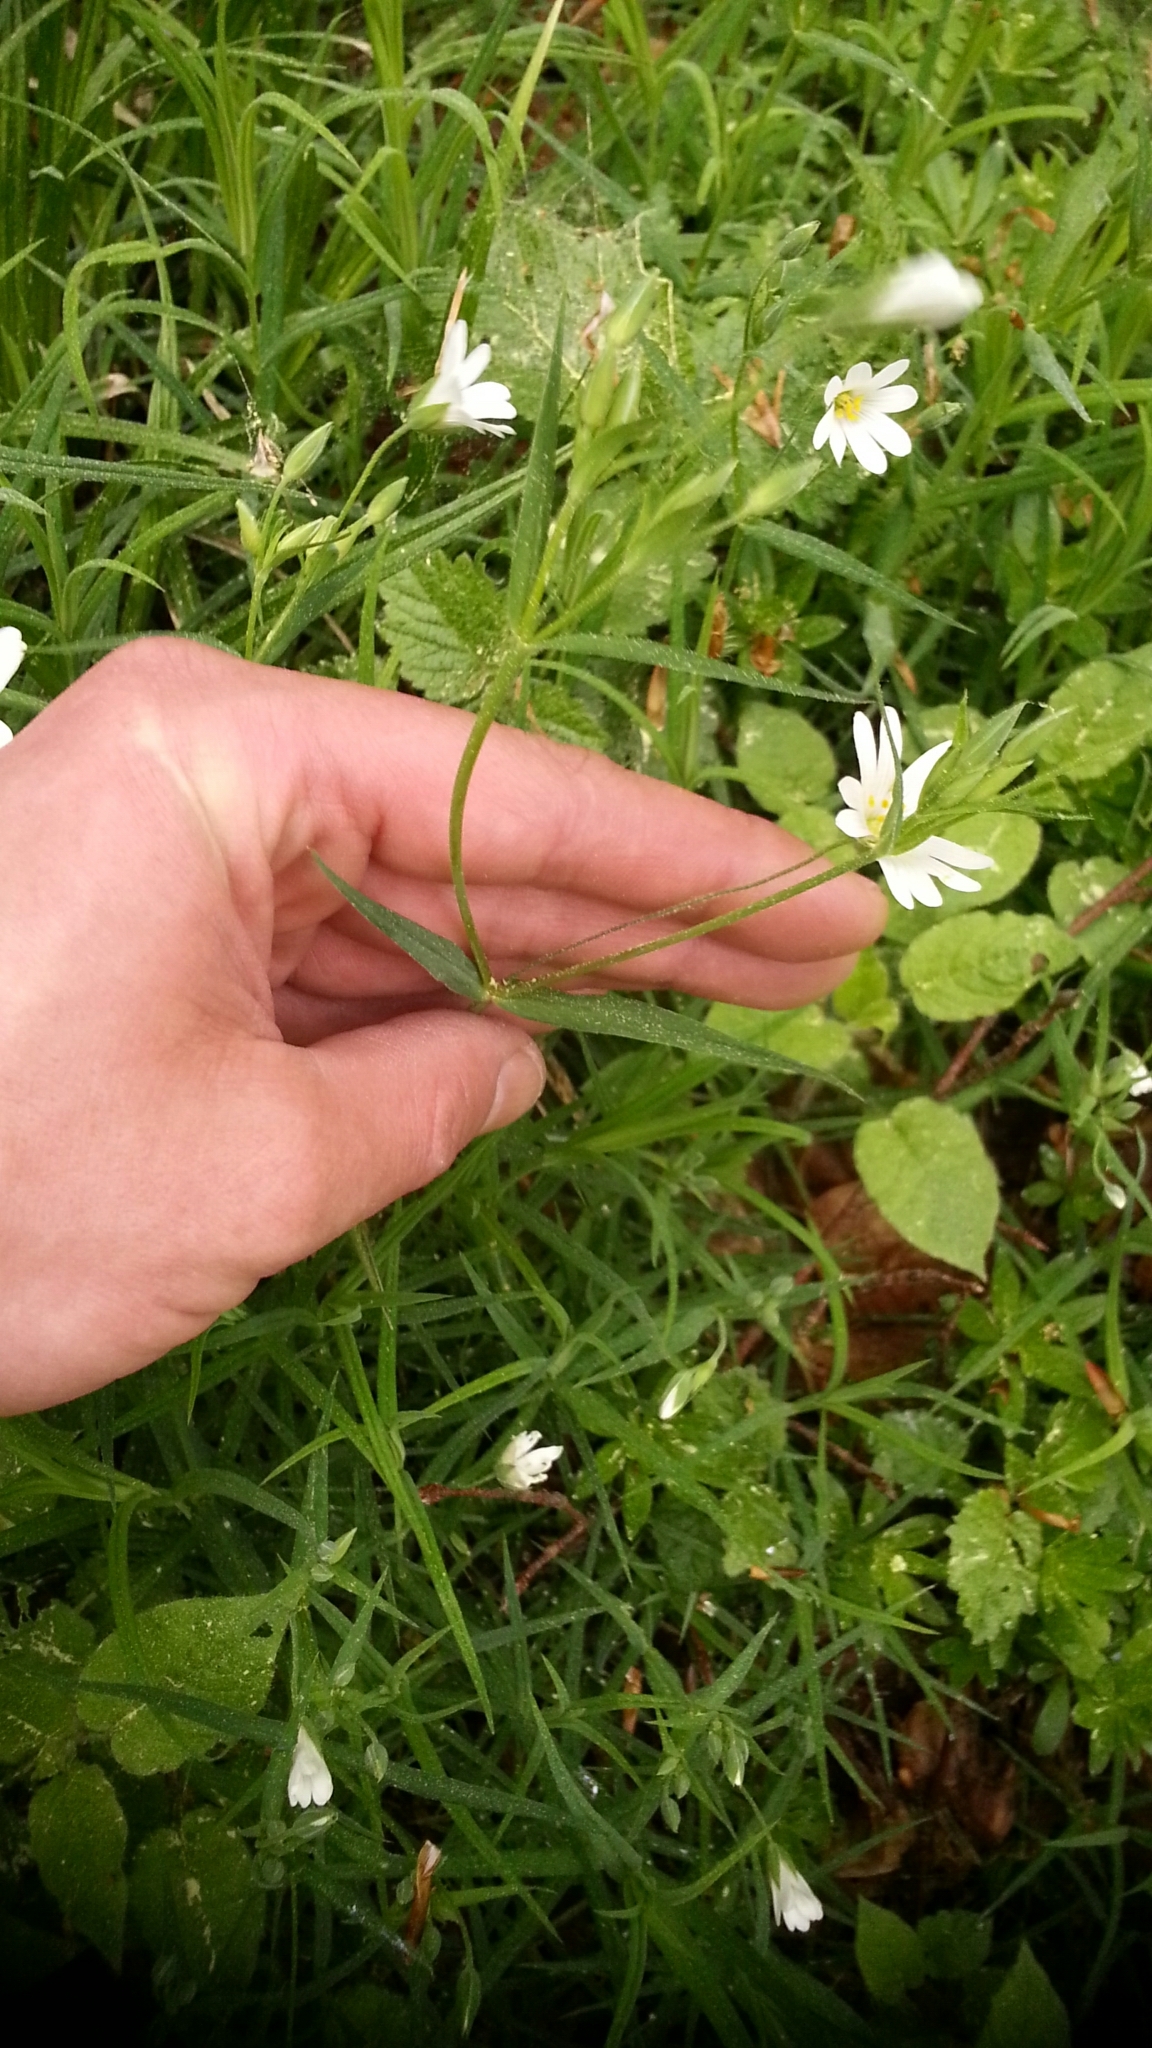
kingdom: Plantae
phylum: Tracheophyta
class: Magnoliopsida
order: Caryophyllales
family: Caryophyllaceae
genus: Rabelera
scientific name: Rabelera holostea
